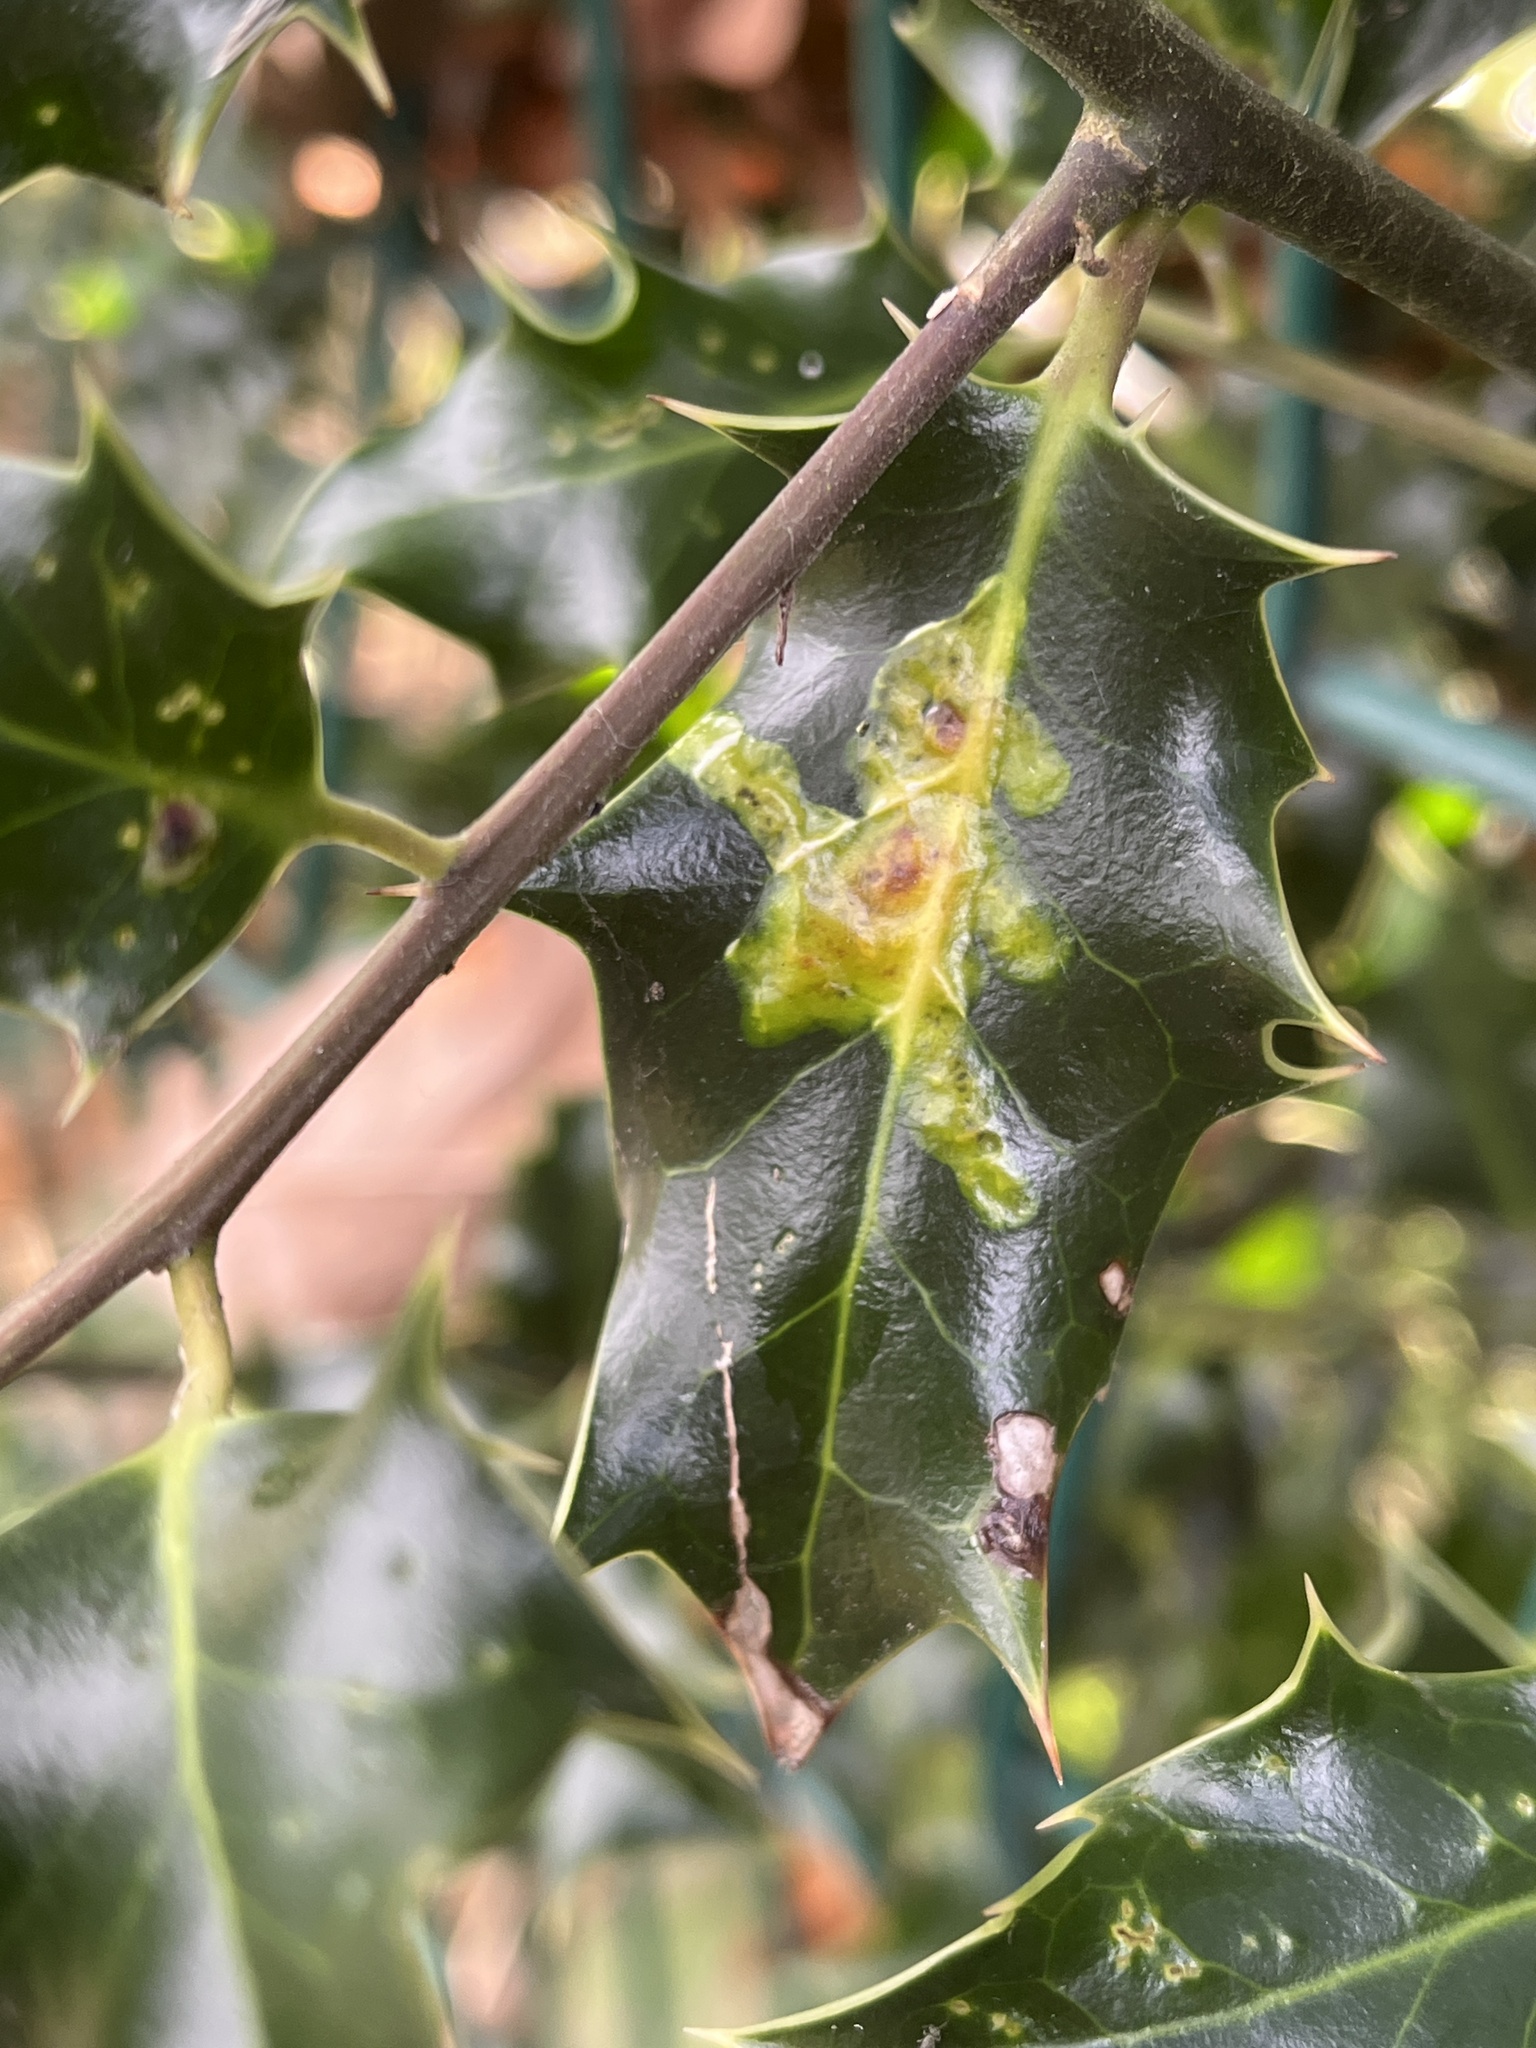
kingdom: Animalia
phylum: Arthropoda
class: Insecta
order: Diptera
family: Agromyzidae
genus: Phytomyza
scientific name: Phytomyza ilicis
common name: Holly leafminer
